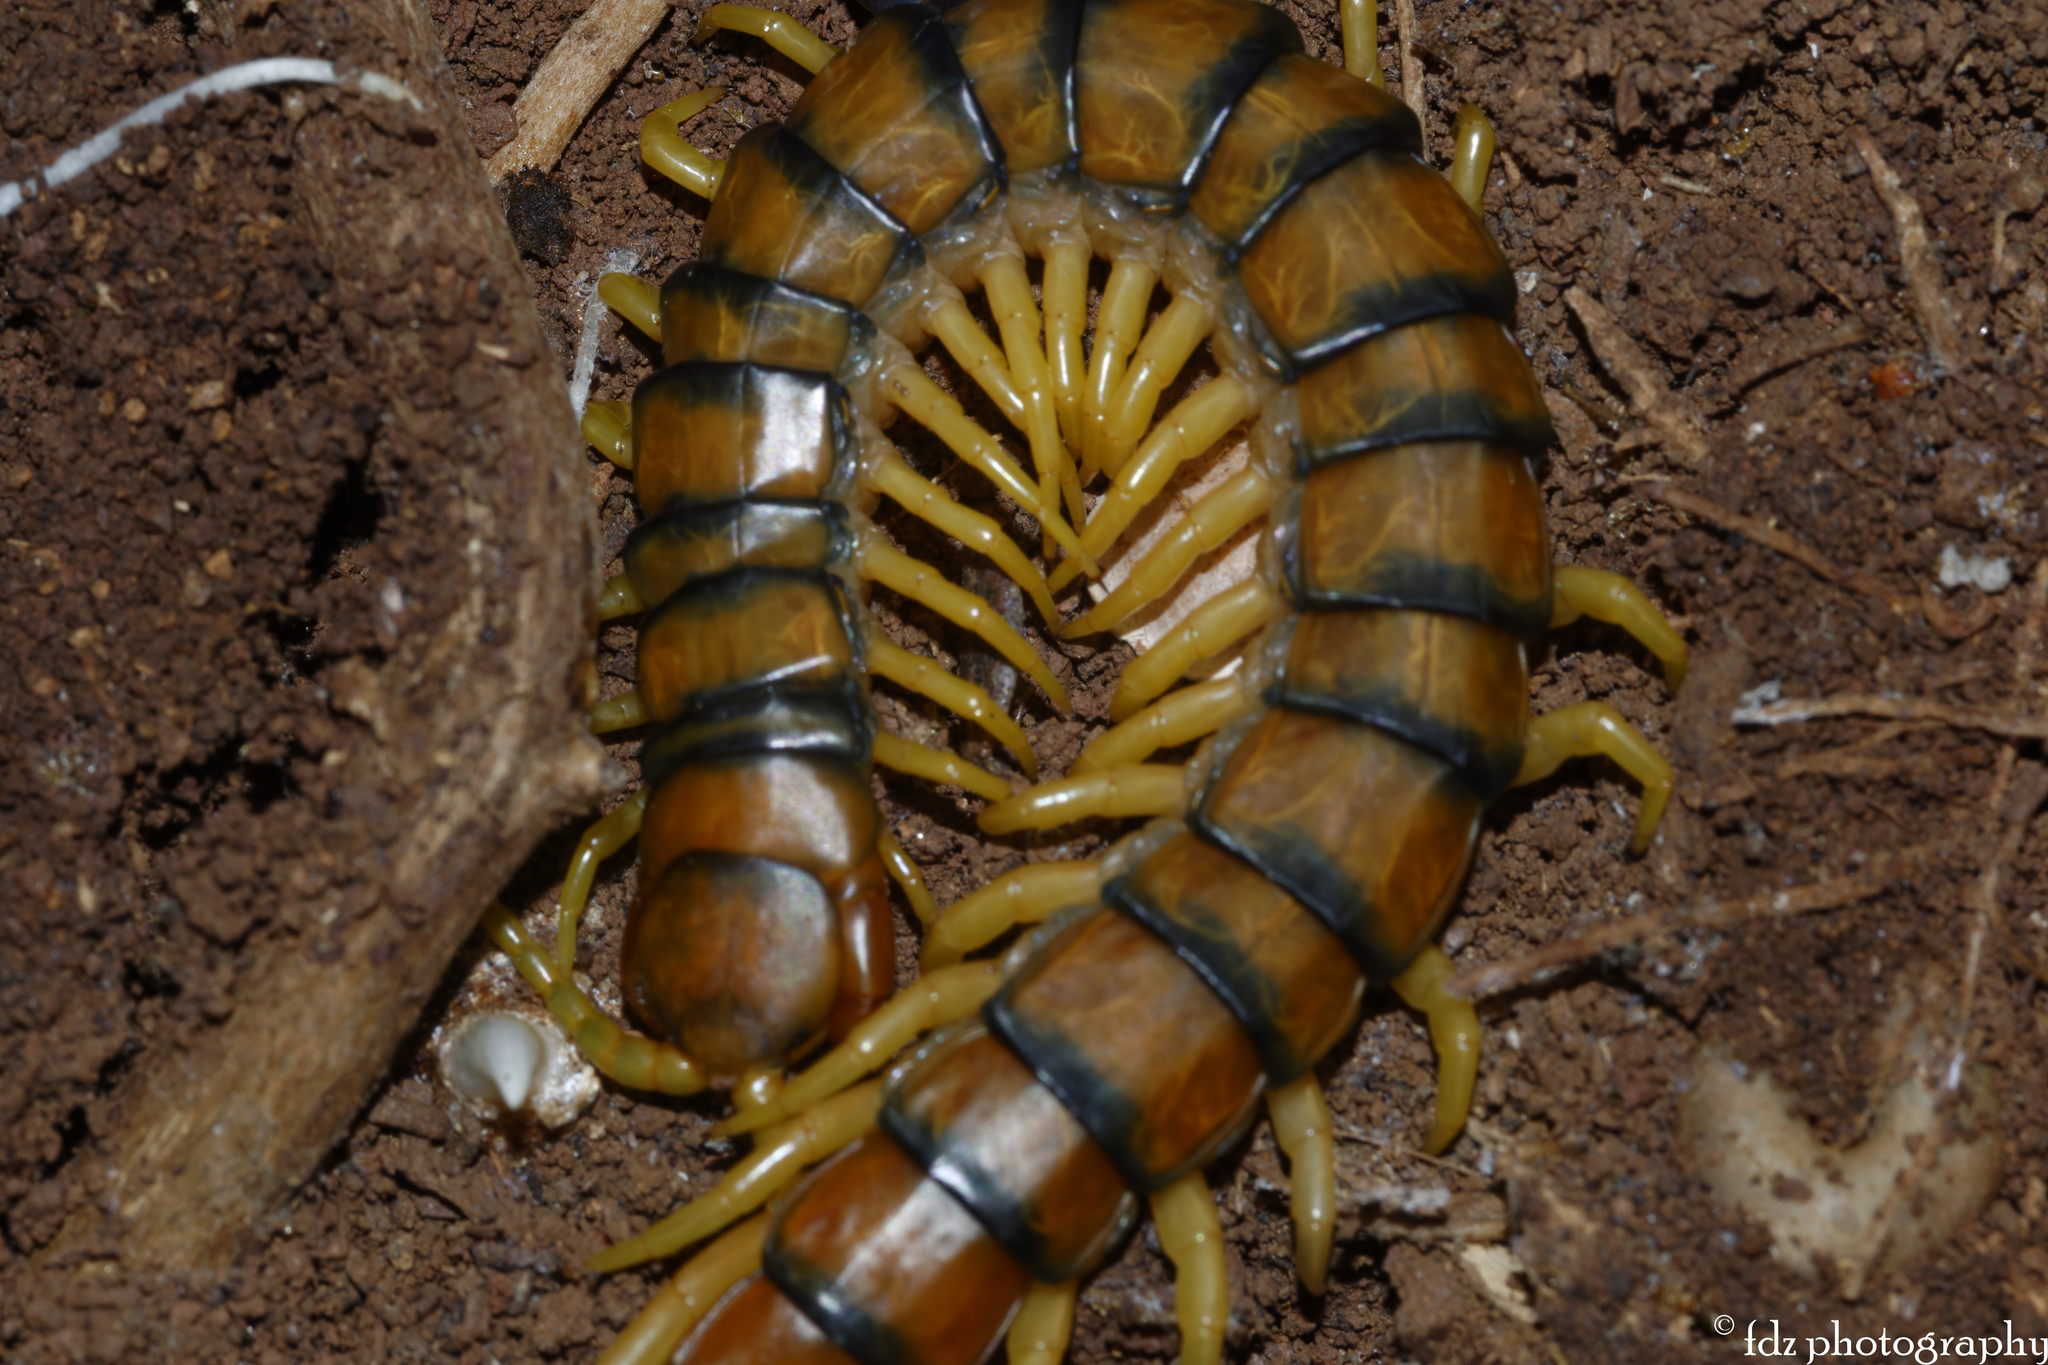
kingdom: Animalia
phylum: Arthropoda
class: Chilopoda
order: Scolopendromorpha
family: Scolopendridae
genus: Scolopendra
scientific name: Scolopendra cingulata
